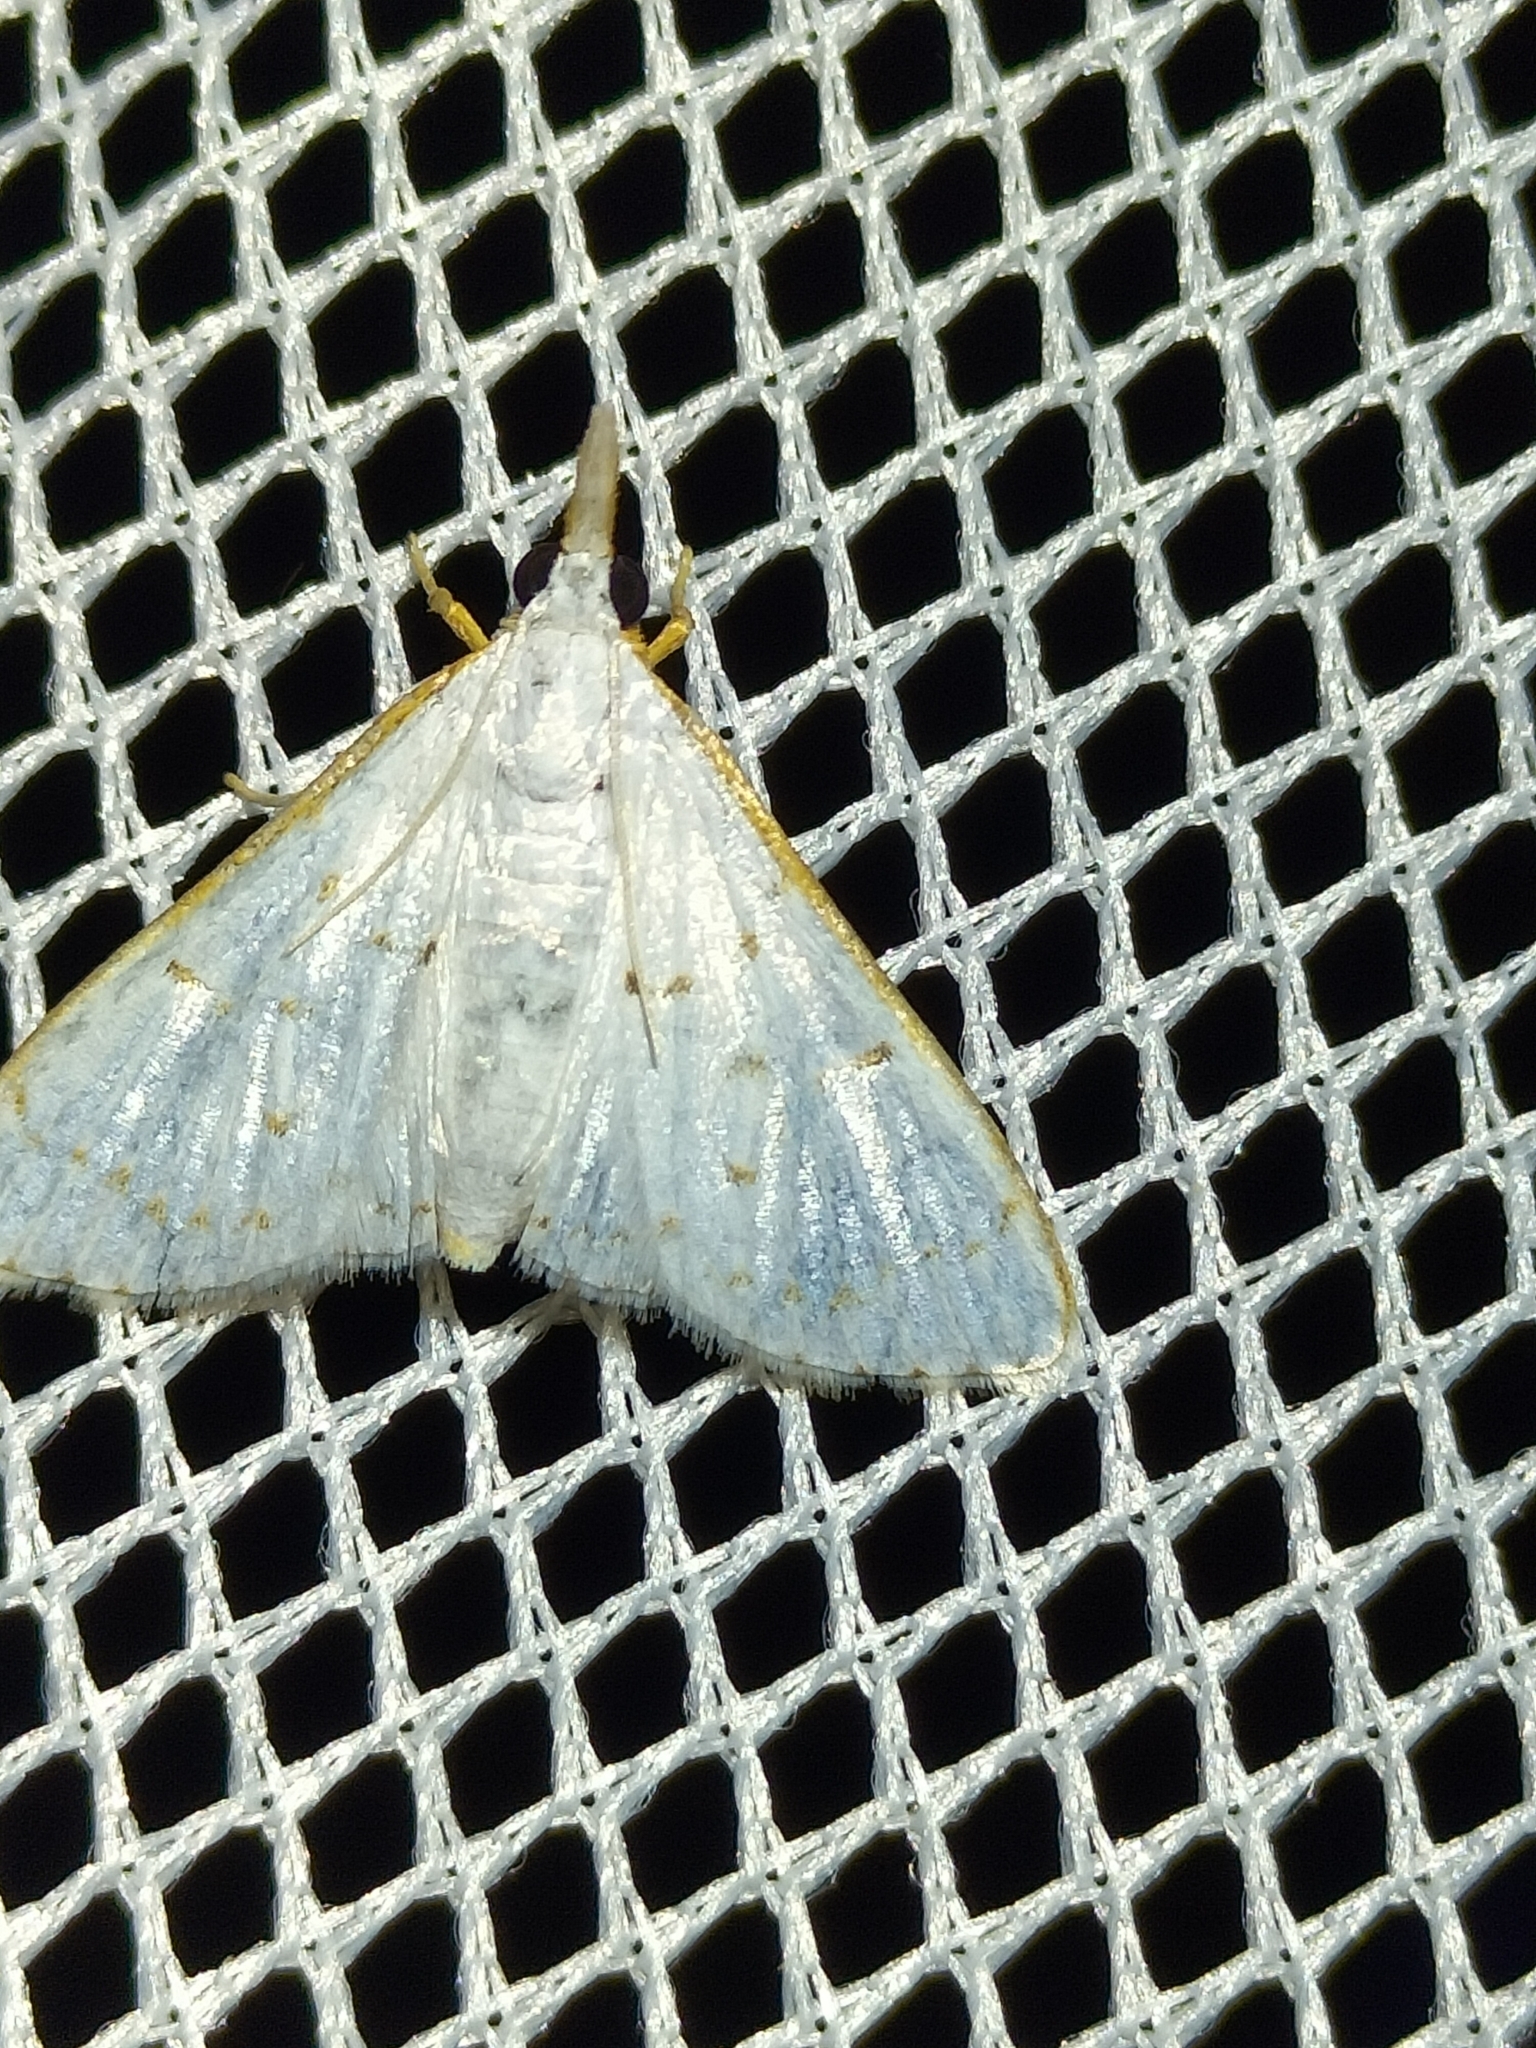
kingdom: Animalia
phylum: Arthropoda
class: Insecta
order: Lepidoptera
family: Crambidae
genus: Cirrhochrista
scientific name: Cirrhochrista punctulata
